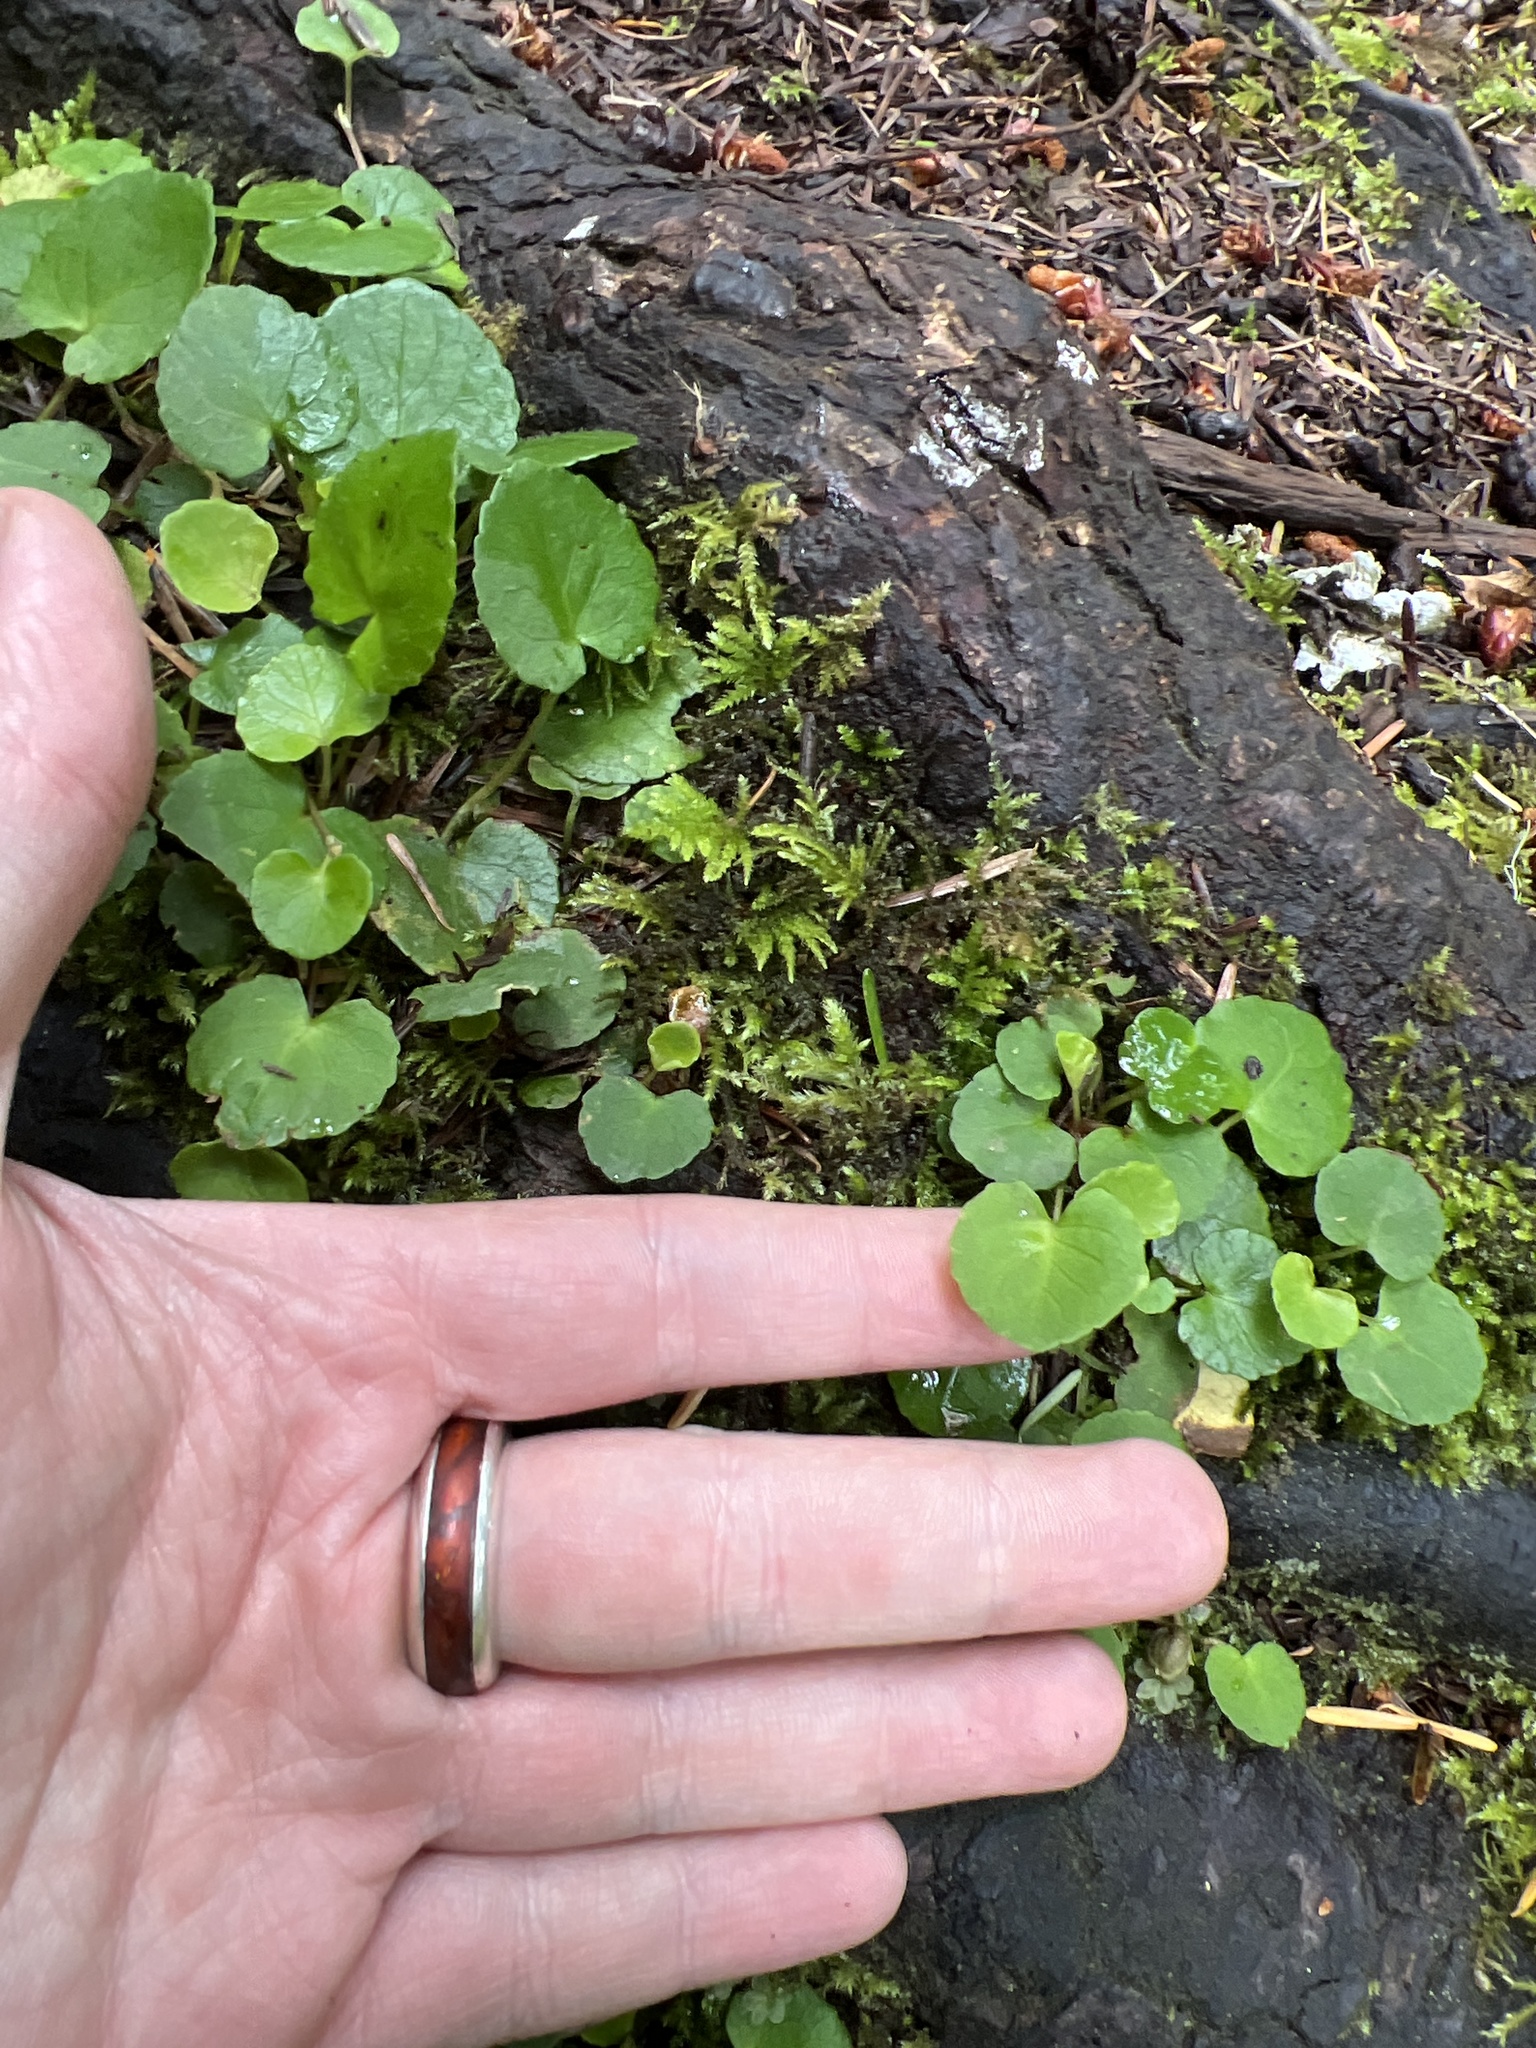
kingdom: Plantae
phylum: Tracheophyta
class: Magnoliopsida
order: Malpighiales
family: Violaceae
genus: Viola
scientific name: Viola sempervirens
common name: Evergreen violet
